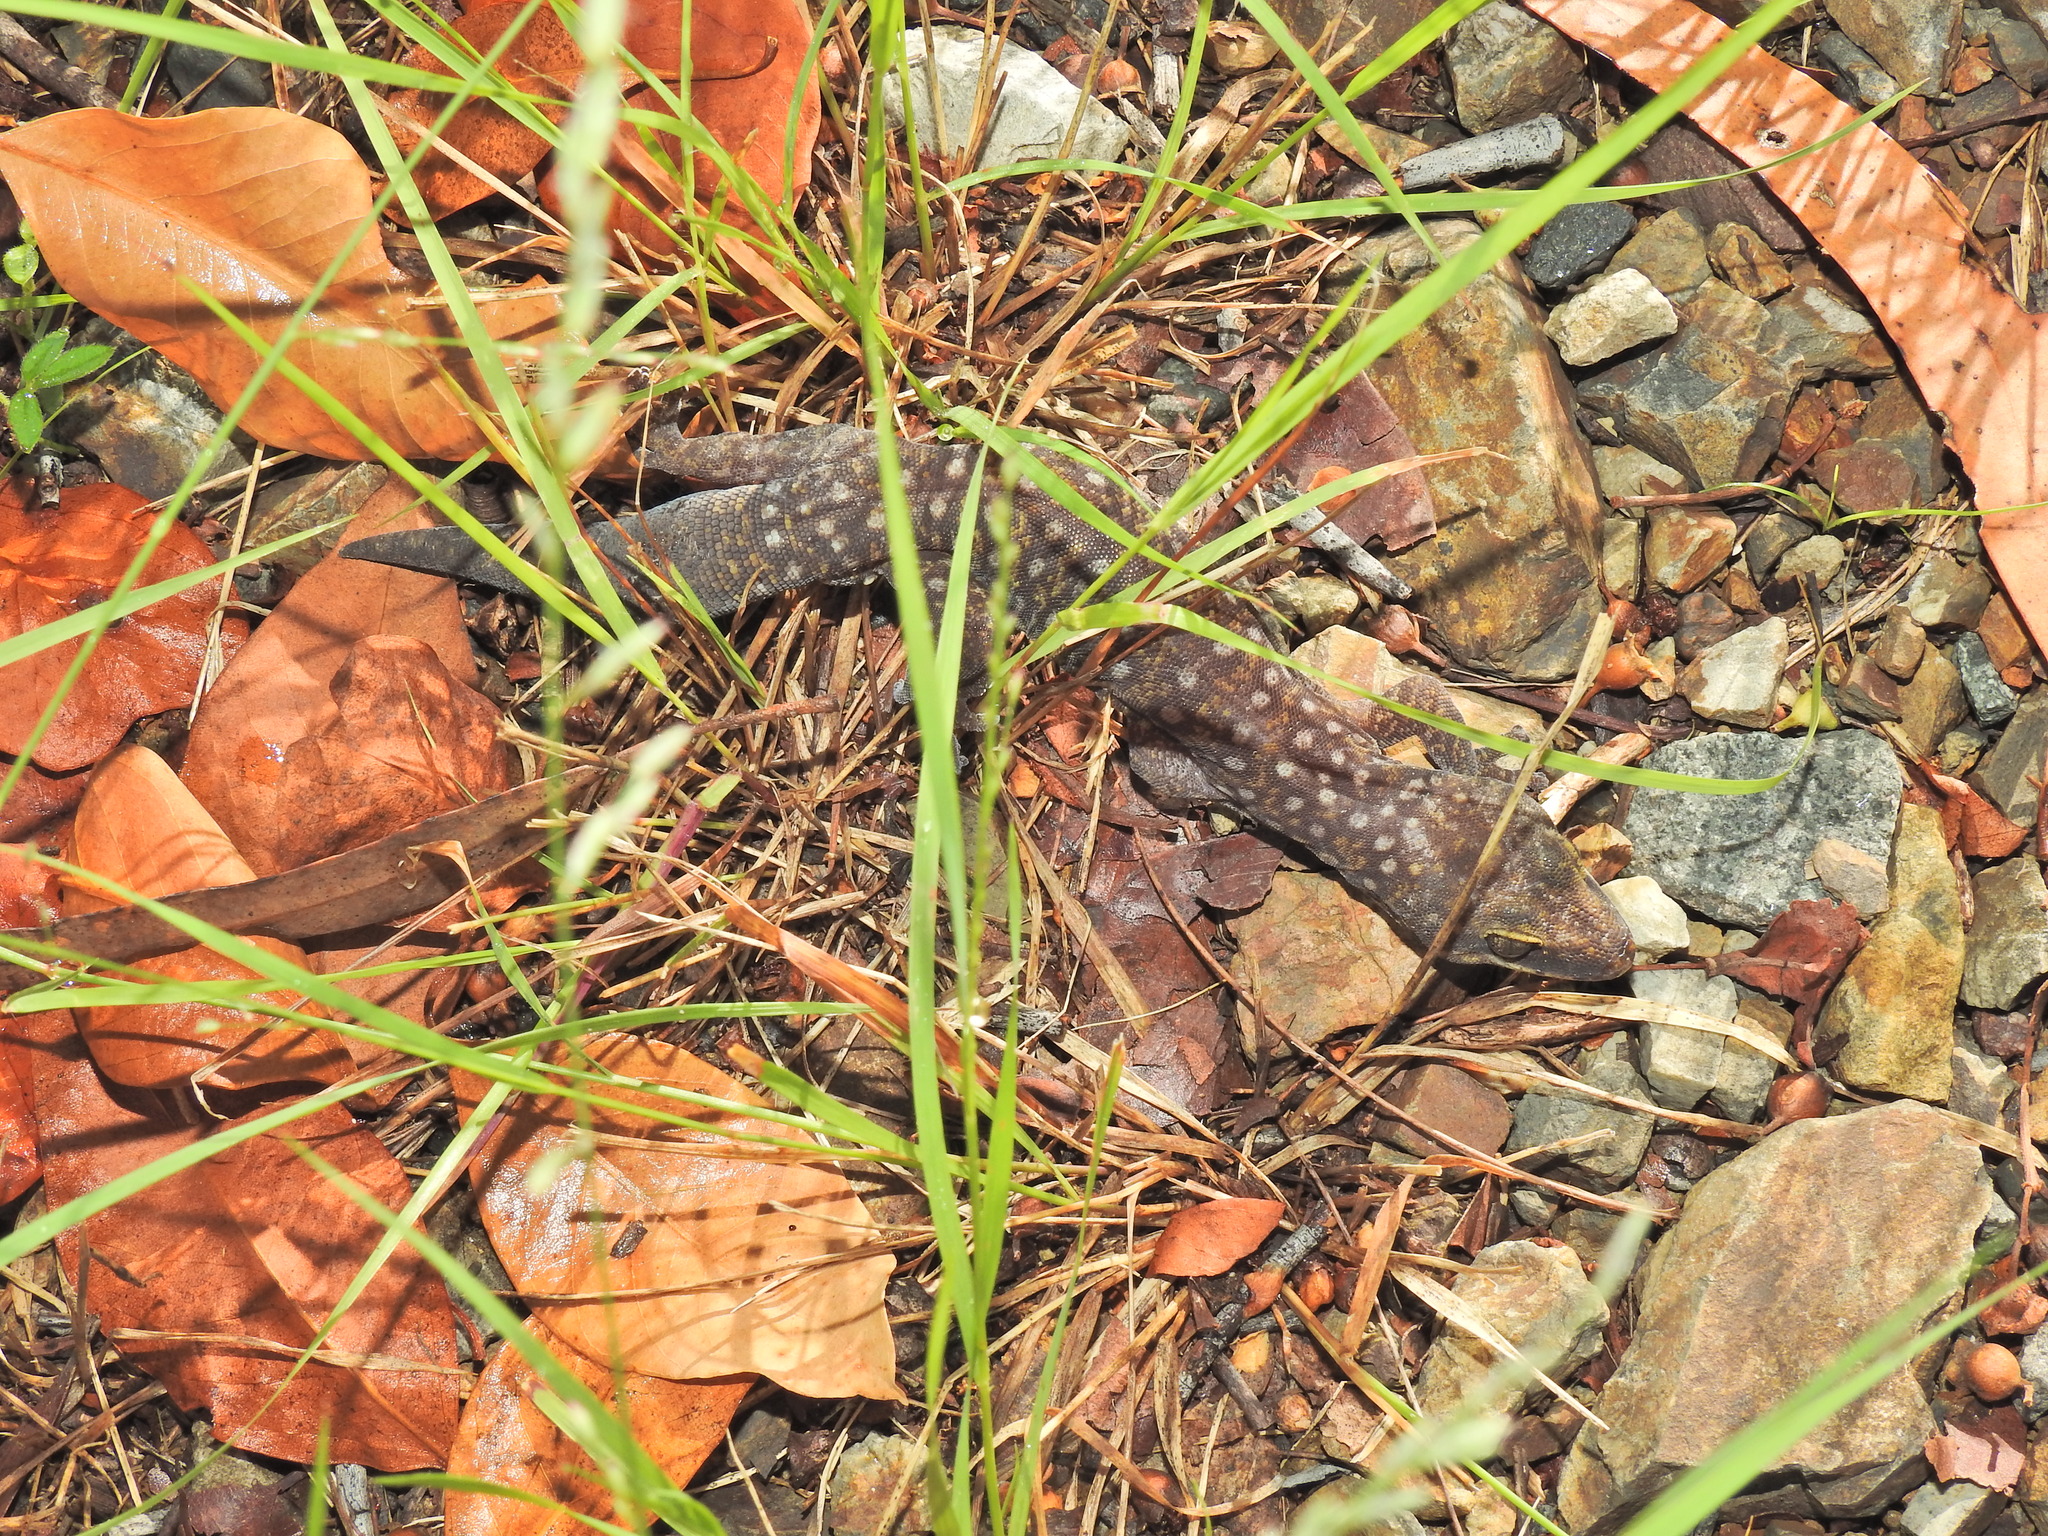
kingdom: Animalia
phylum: Chordata
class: Squamata
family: Diplodactylidae
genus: Oedura
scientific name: Oedura tryoni
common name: Southern spotted velvet gecko
